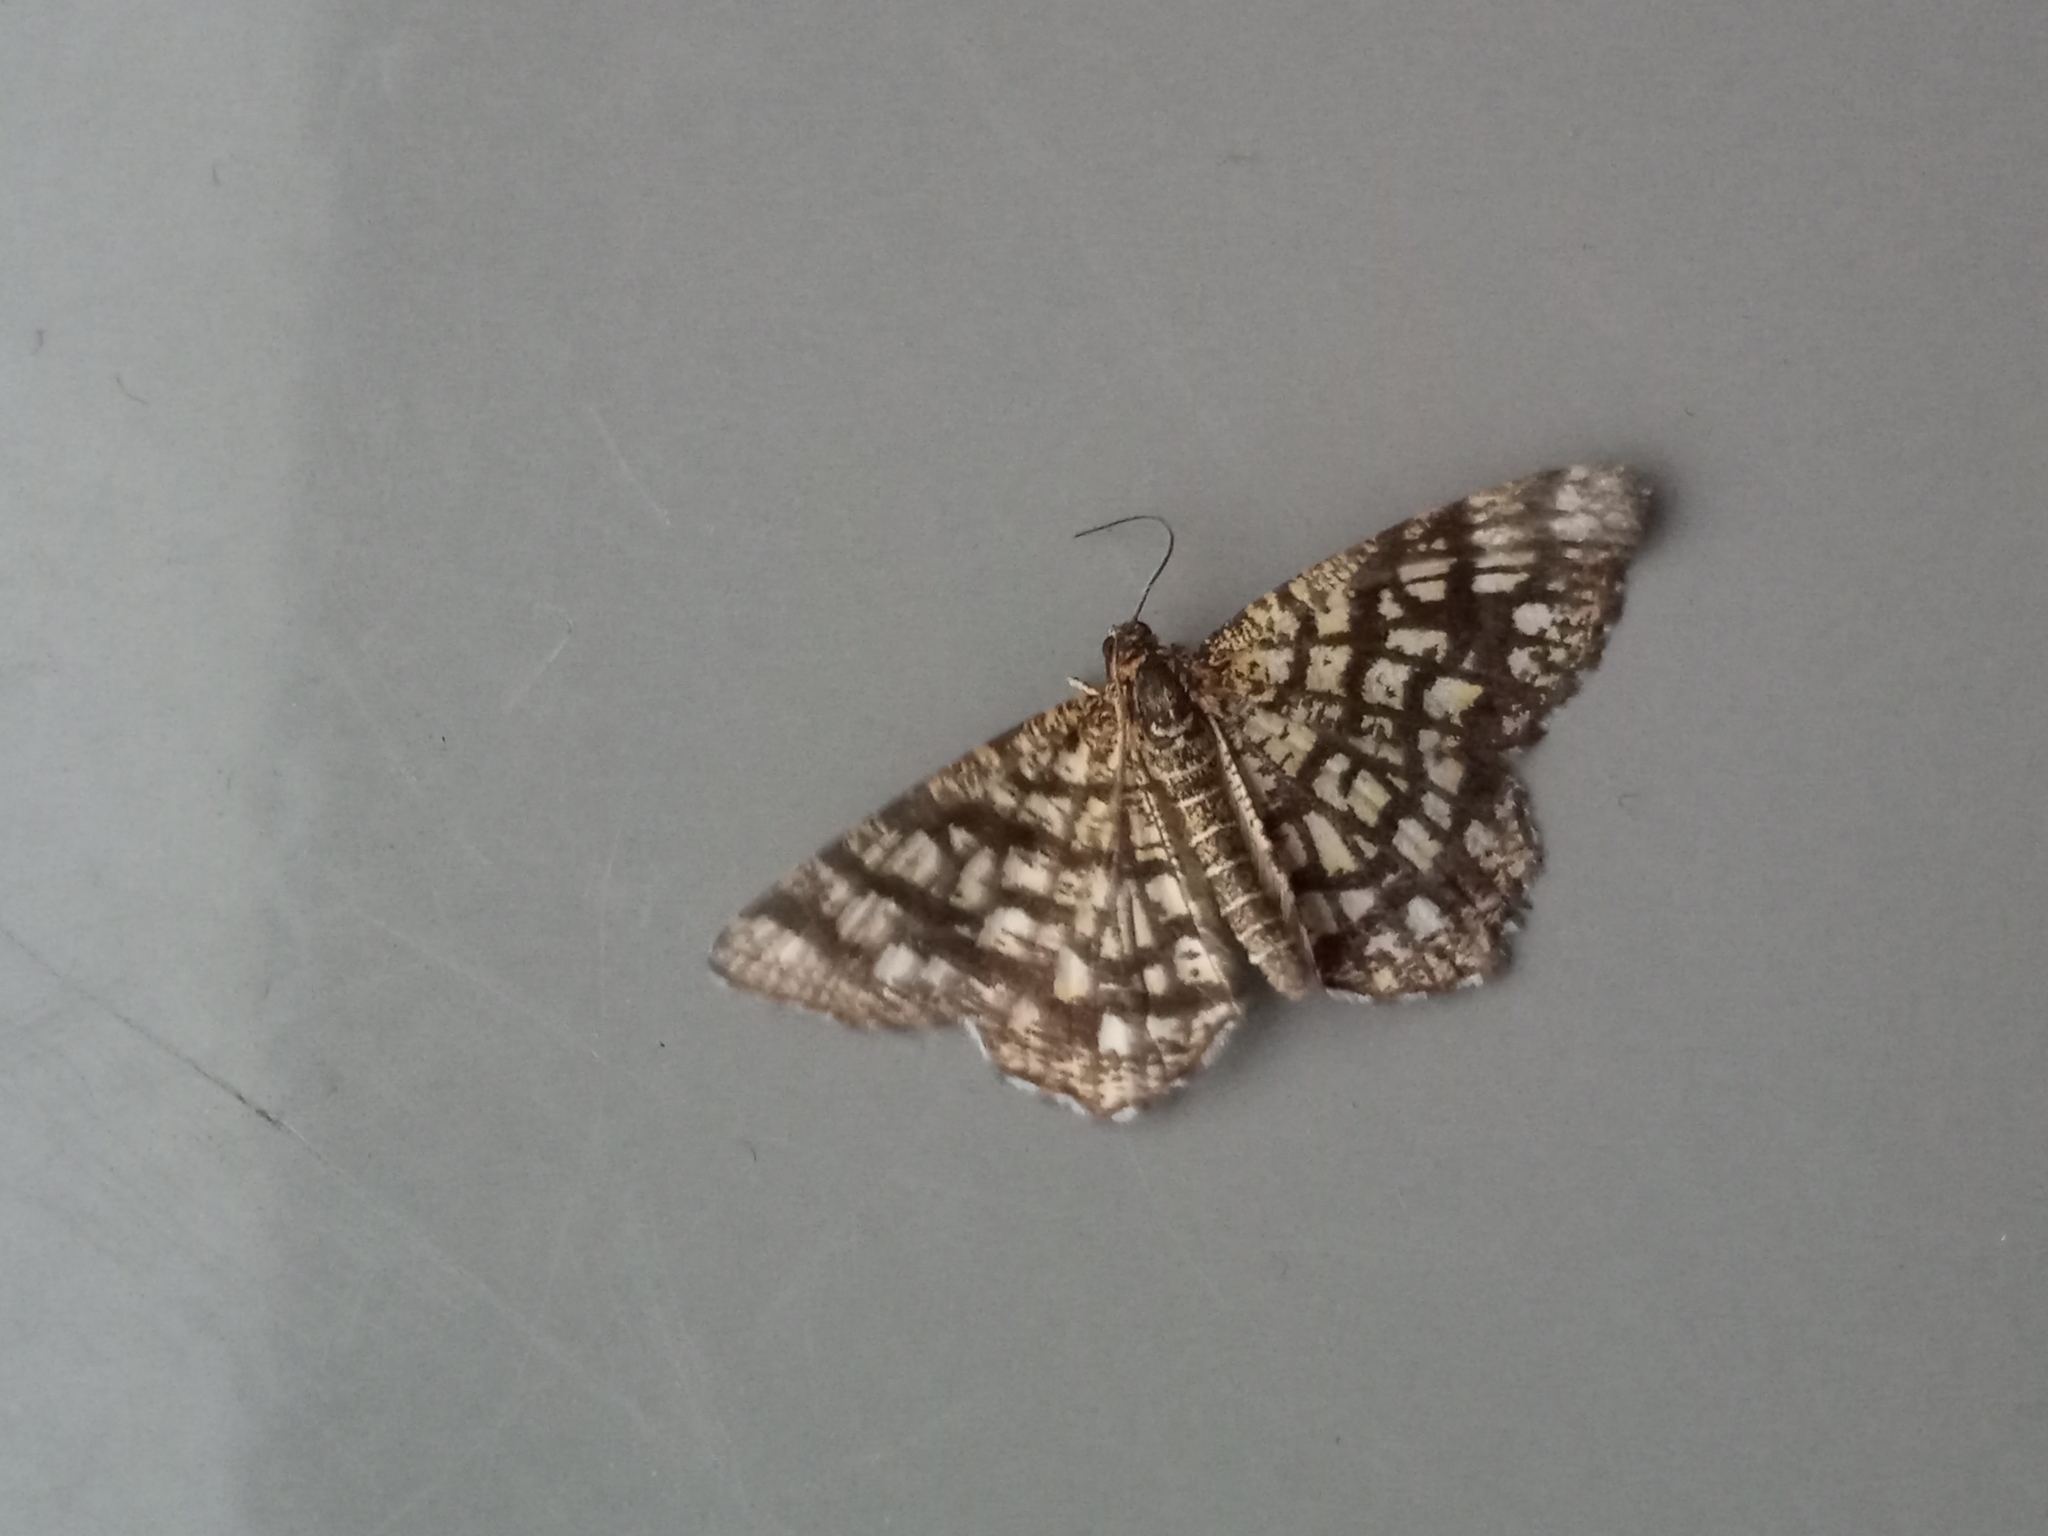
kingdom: Animalia
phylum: Arthropoda
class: Insecta
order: Lepidoptera
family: Geometridae
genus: Chiasmia
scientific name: Chiasmia clathrata
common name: Latticed heath
